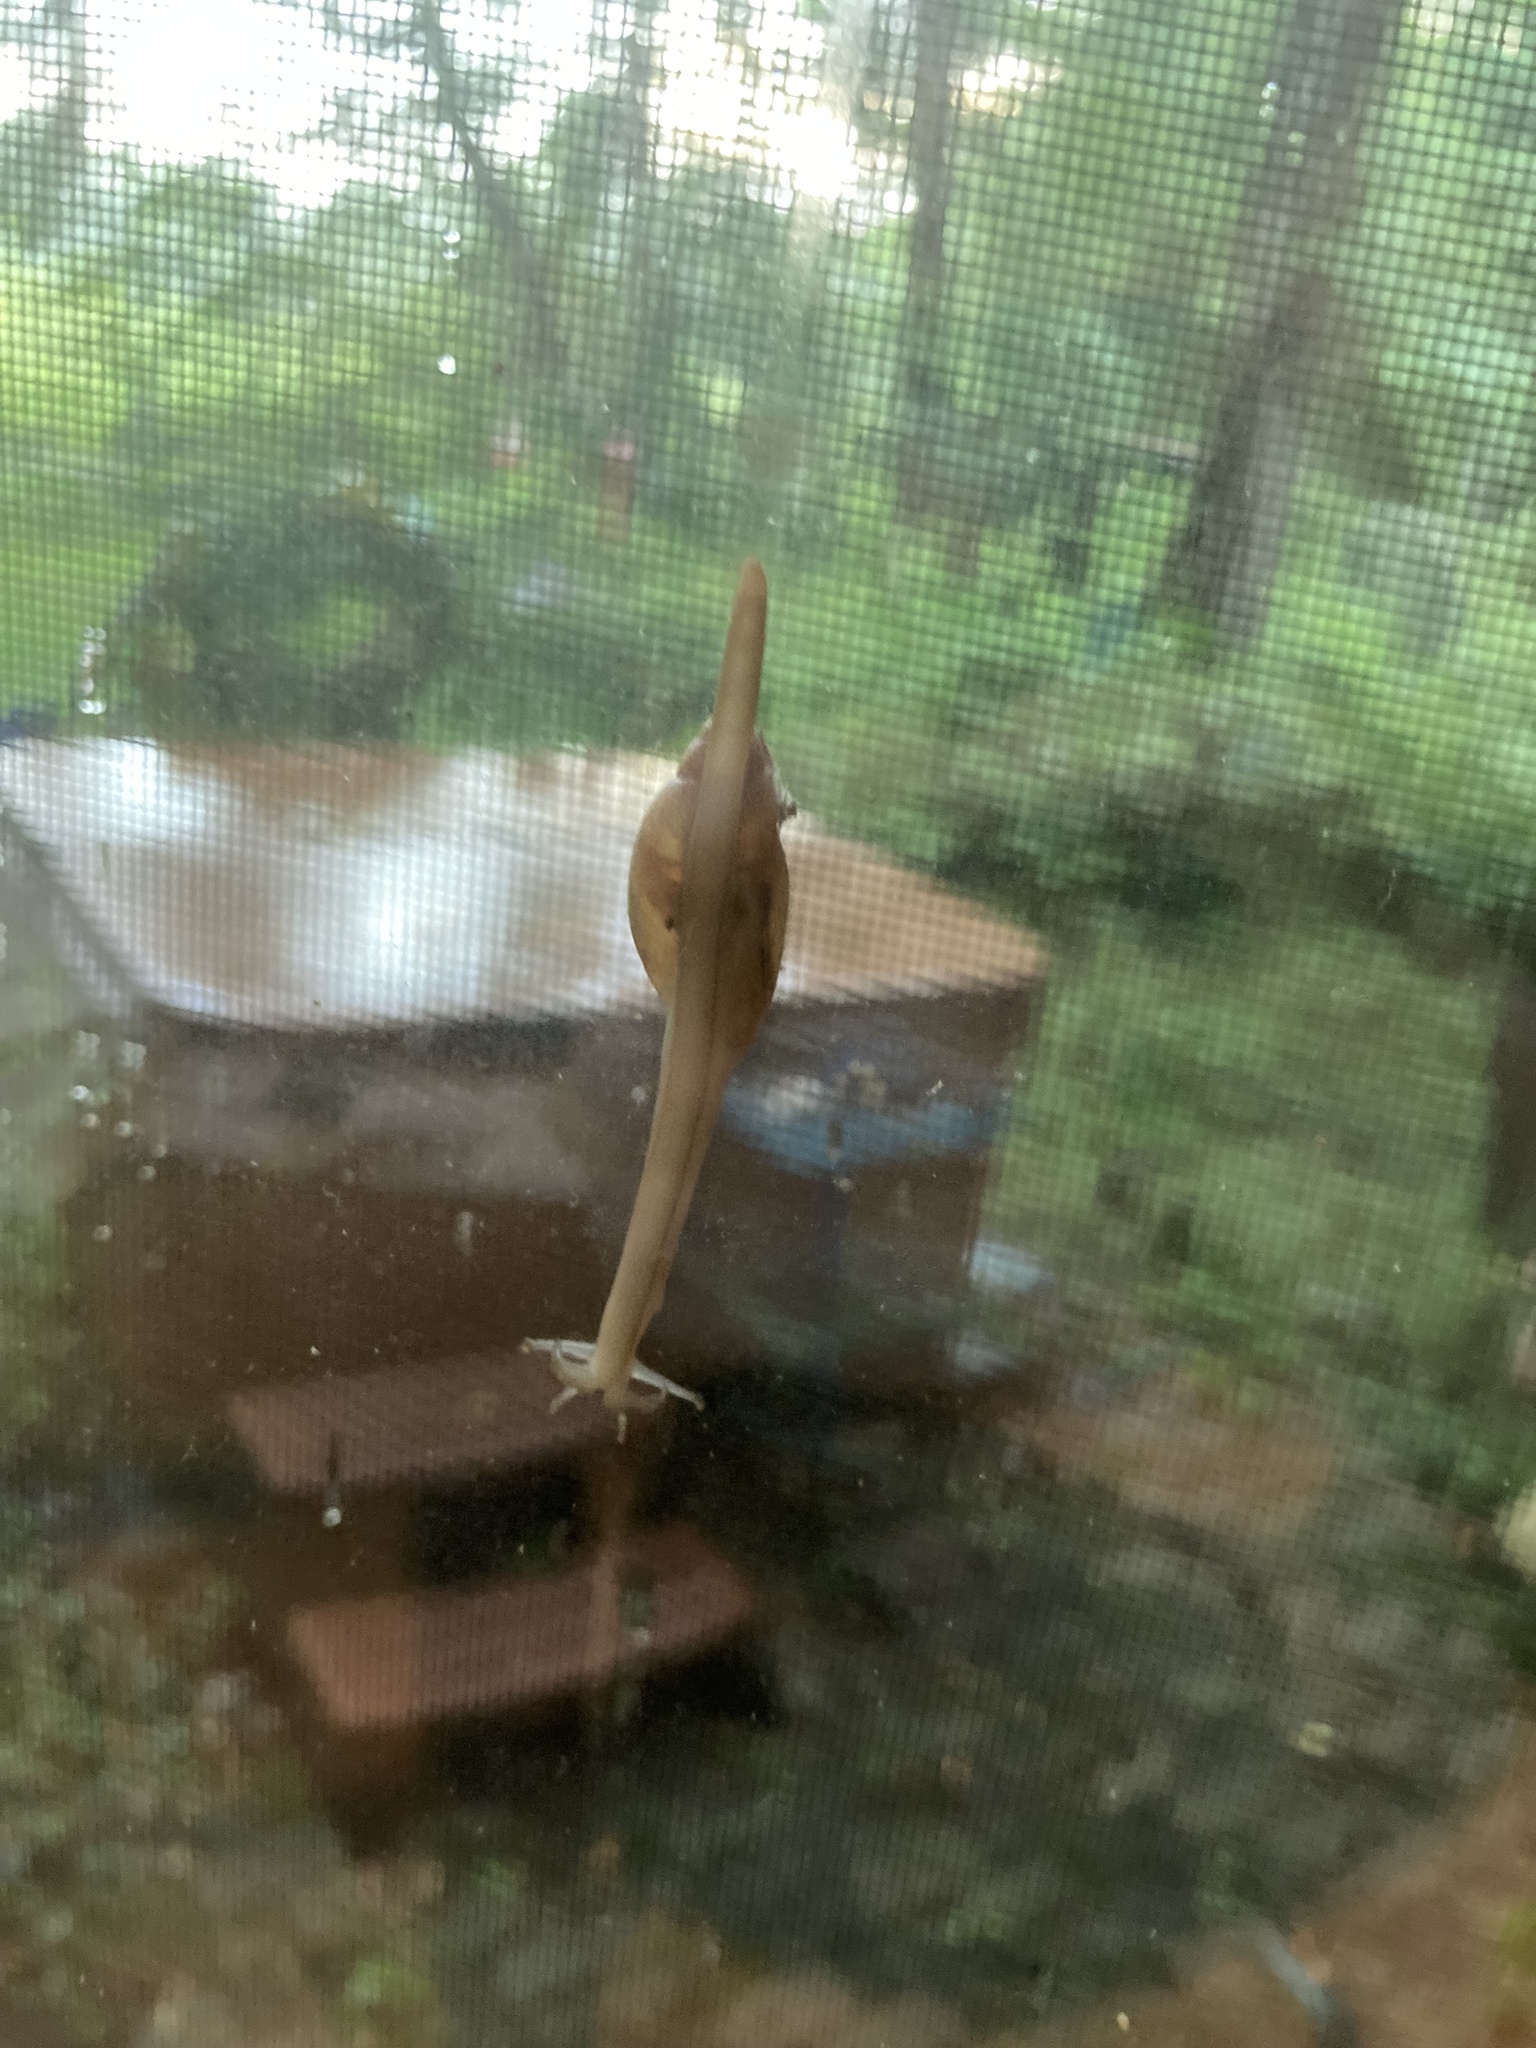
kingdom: Animalia
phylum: Mollusca
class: Gastropoda
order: Stylommatophora
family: Spiraxidae
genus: Euglandina
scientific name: Euglandina rosea
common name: Rosy wolfsnail
